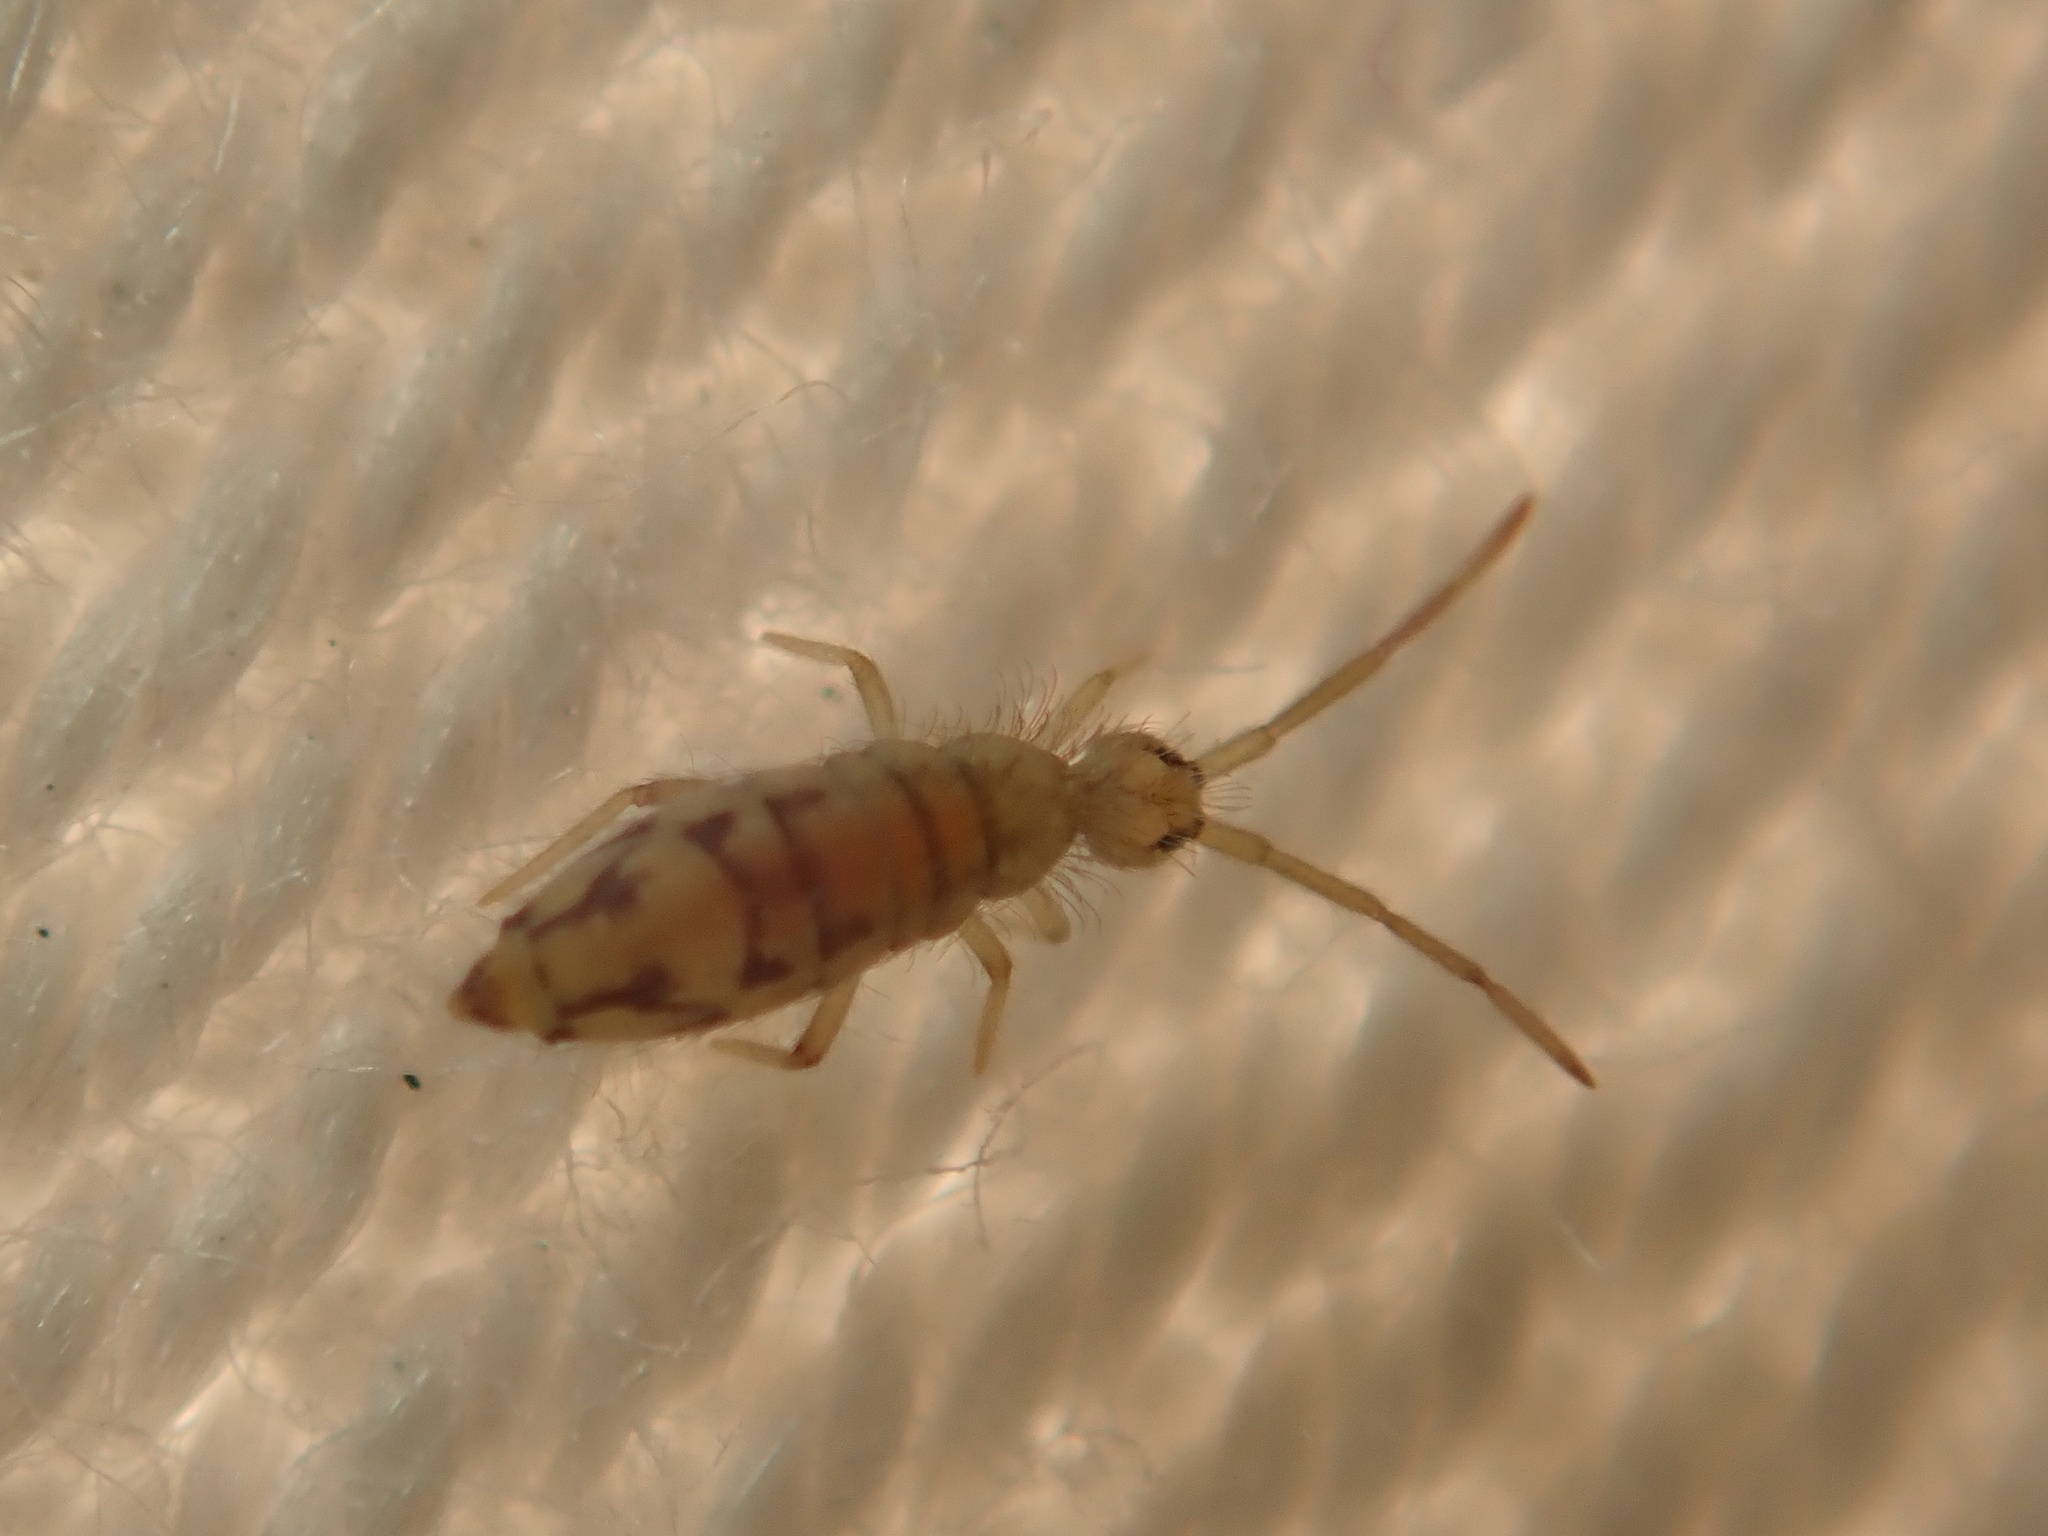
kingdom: Animalia
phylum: Arthropoda
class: Collembola
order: Entomobryomorpha
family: Entomobryidae
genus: Entomobrya
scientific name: Entomobrya nivalis
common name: Cosmopolitan springtail
